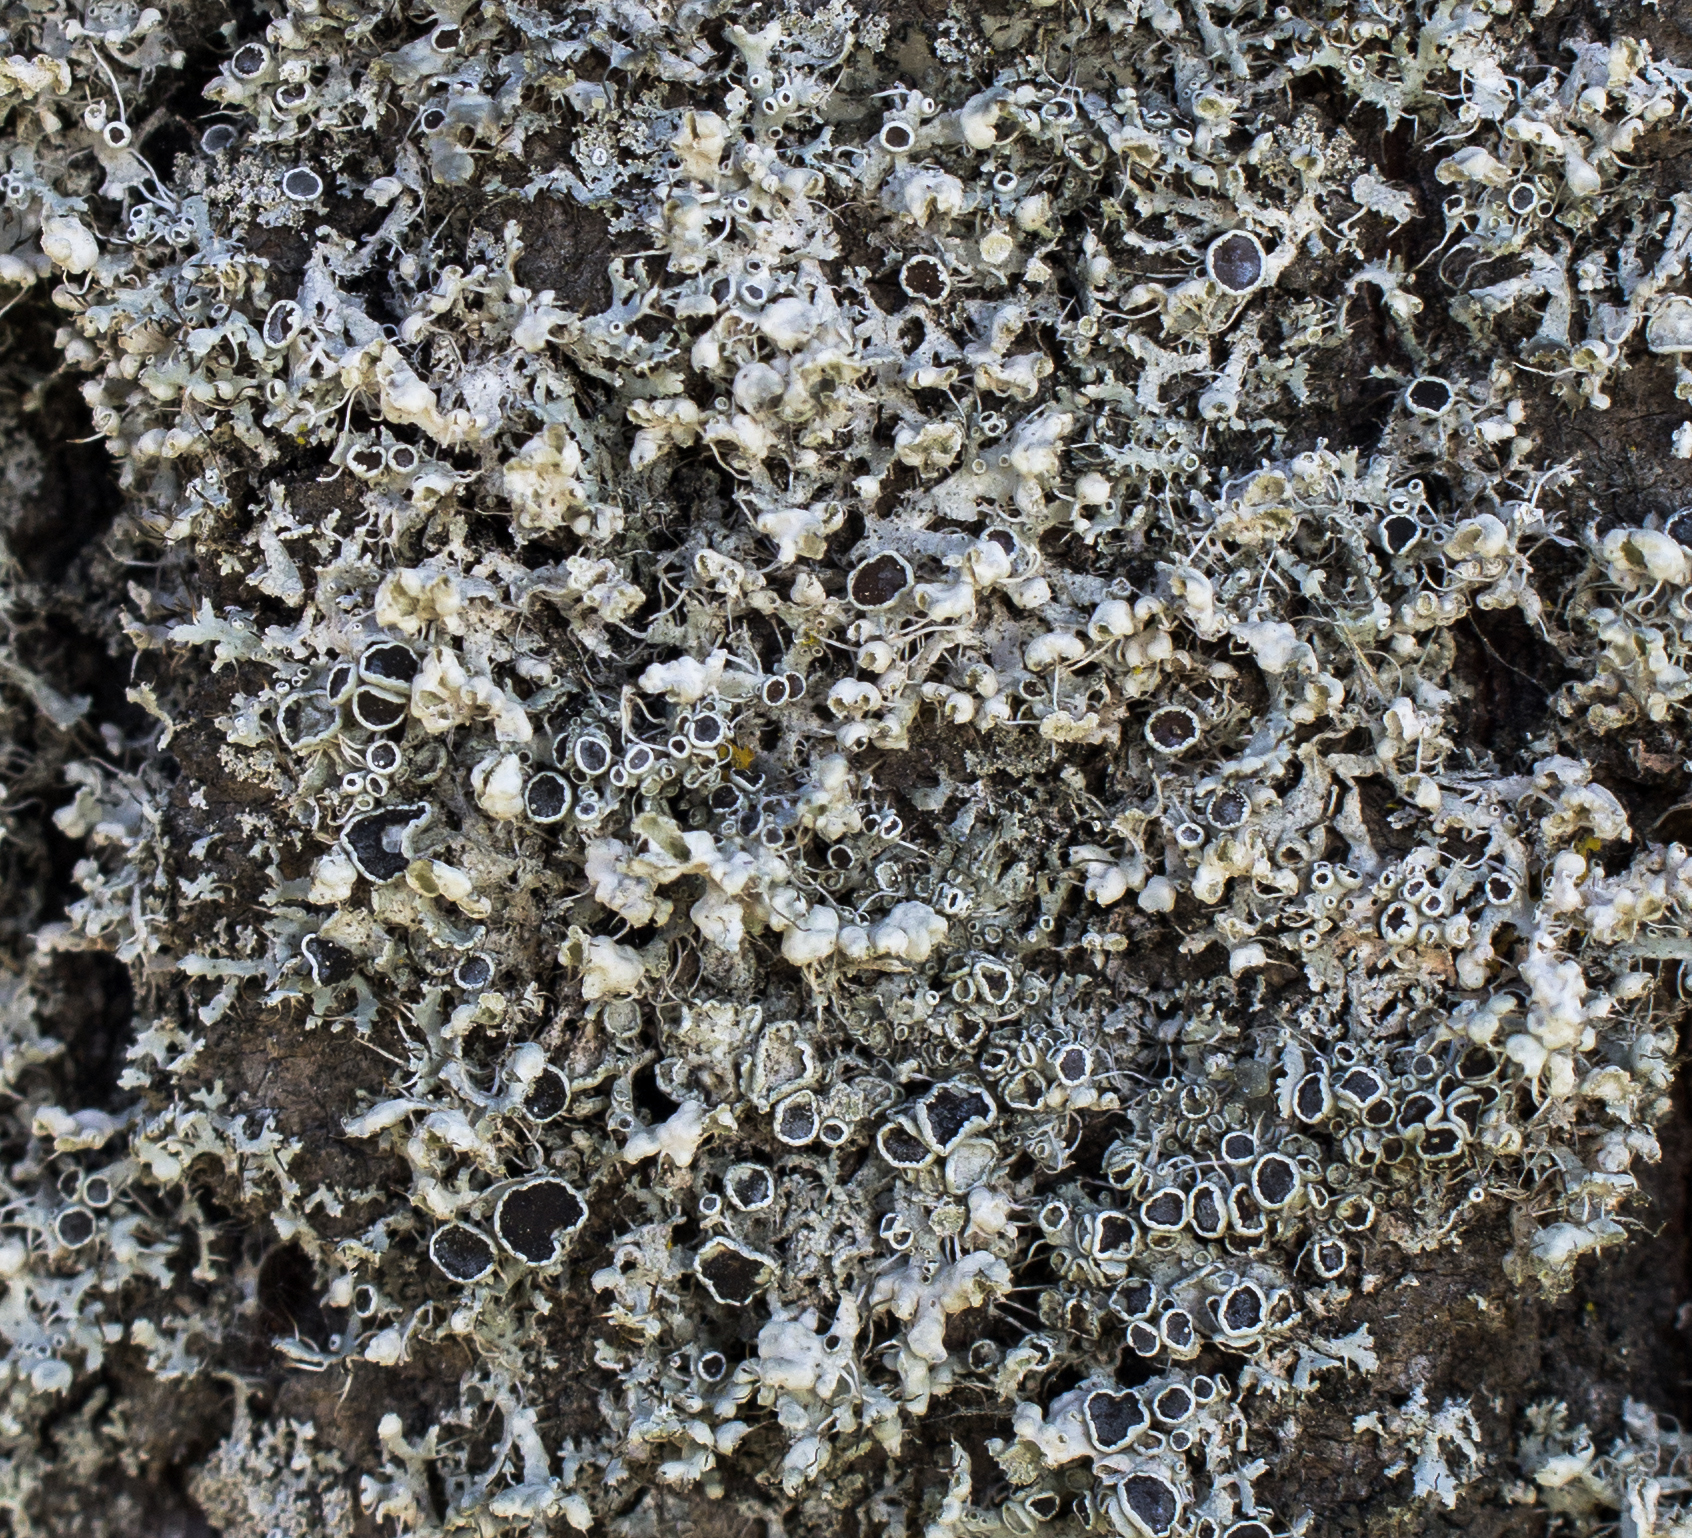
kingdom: Fungi
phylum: Ascomycota
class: Lecanoromycetes
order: Caliciales
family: Physciaceae
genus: Physcia
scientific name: Physcia adscendens
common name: Hooded rosette lichen
